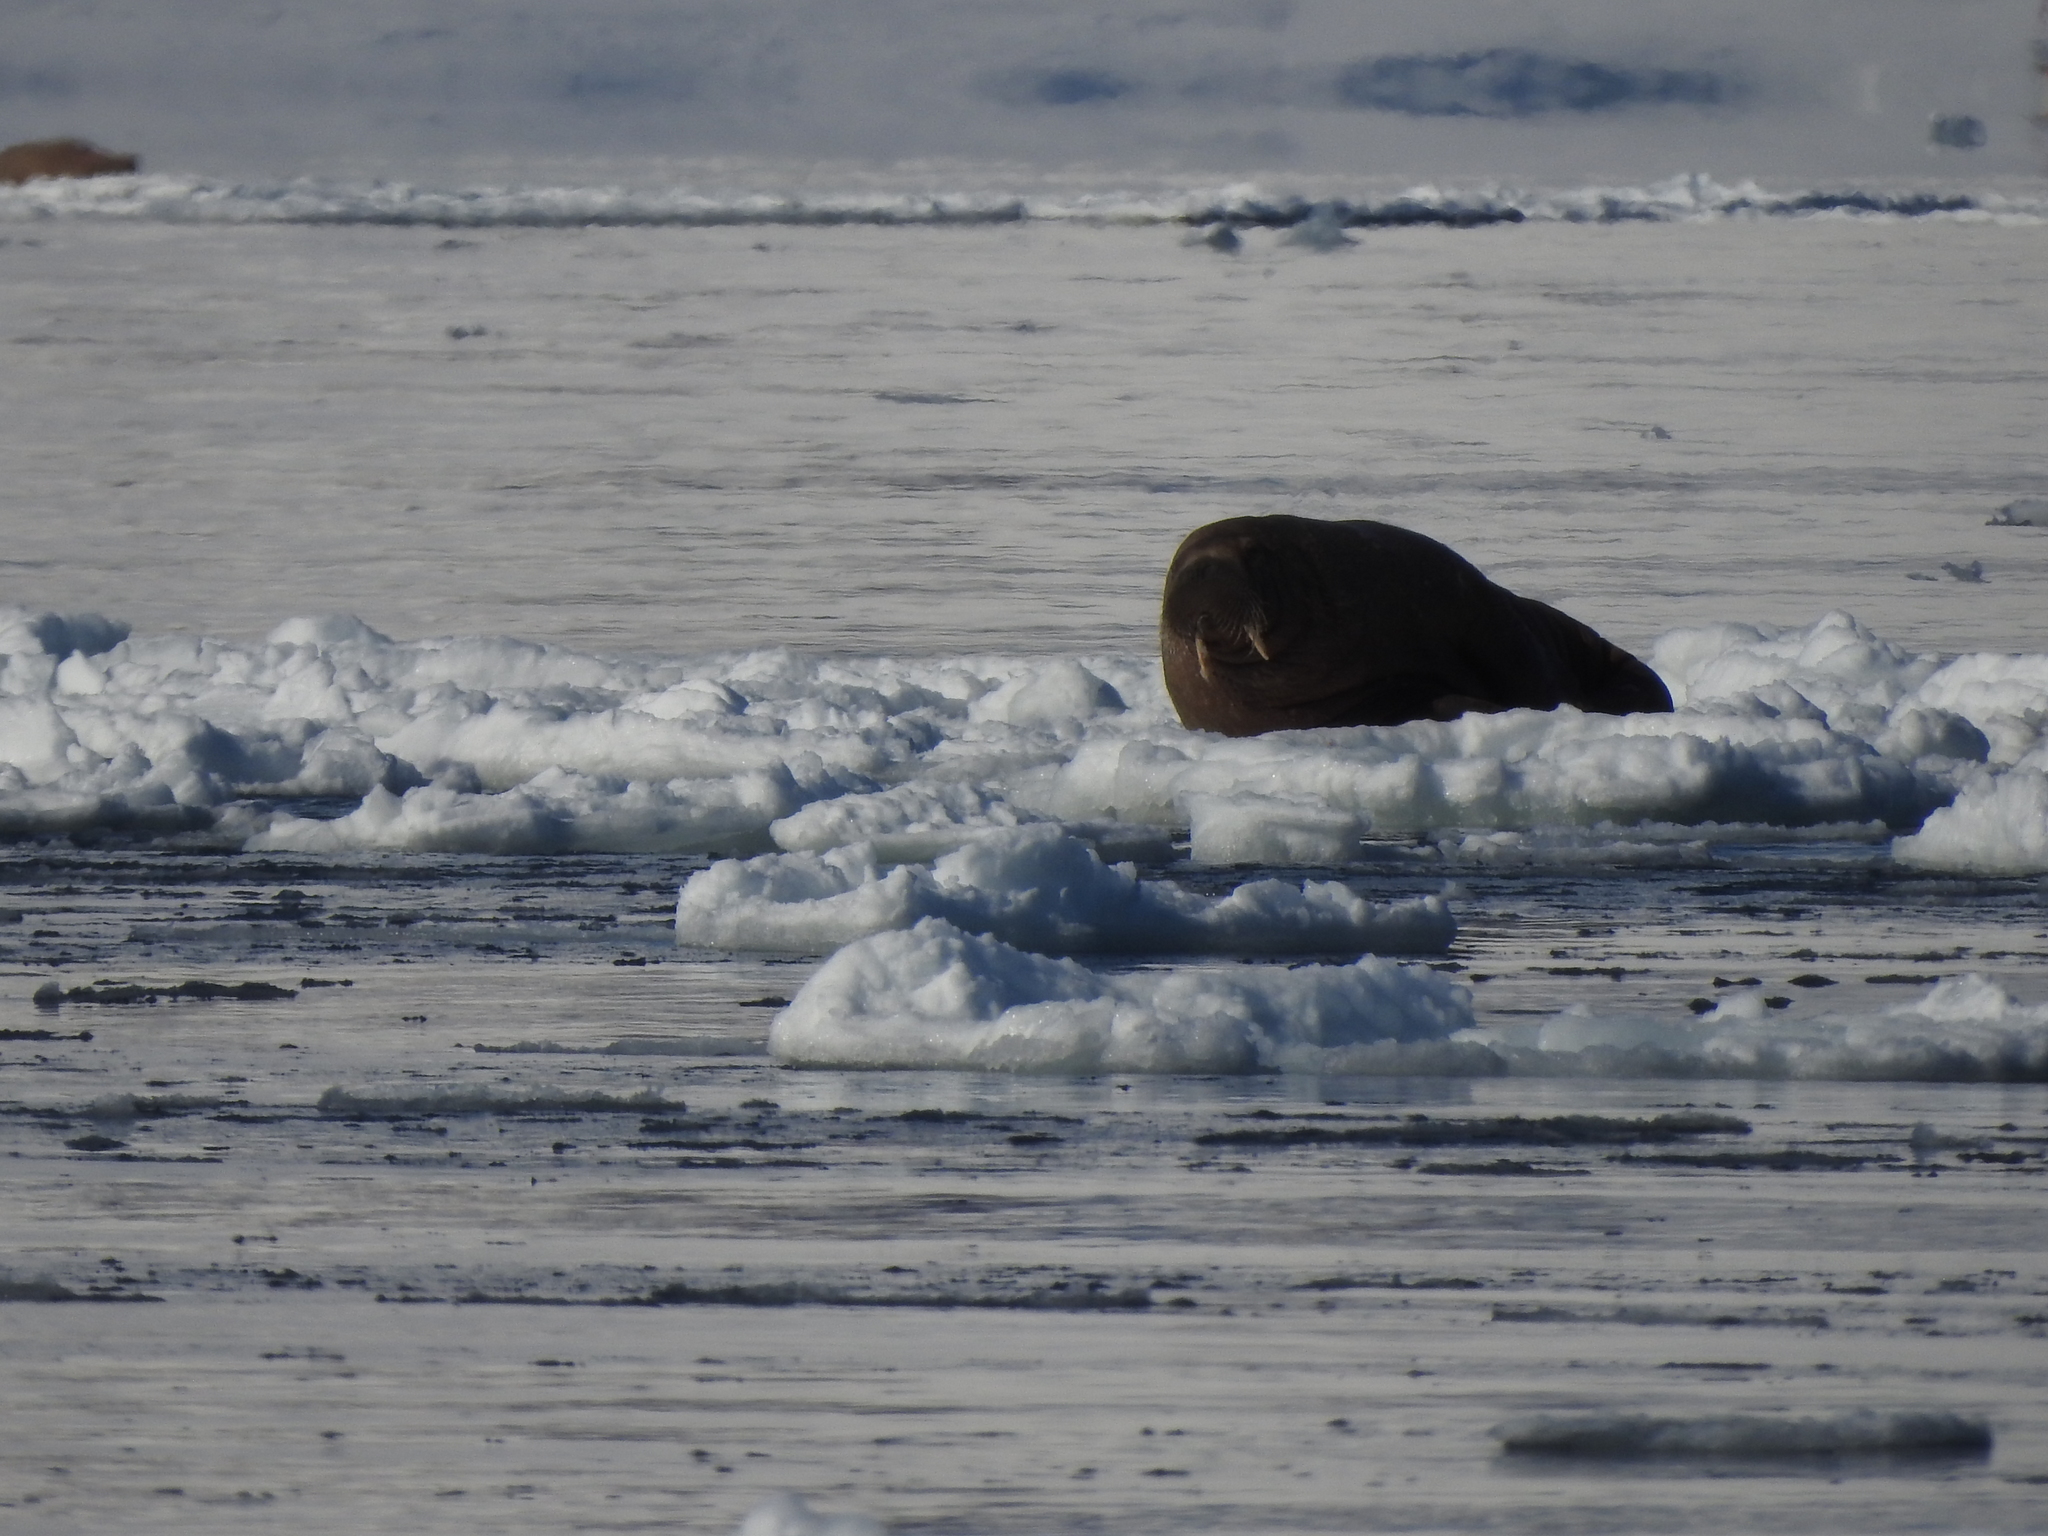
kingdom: Animalia
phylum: Chordata
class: Mammalia
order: Carnivora
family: Odobenidae
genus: Odobenus
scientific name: Odobenus rosmarus
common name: Walrus
